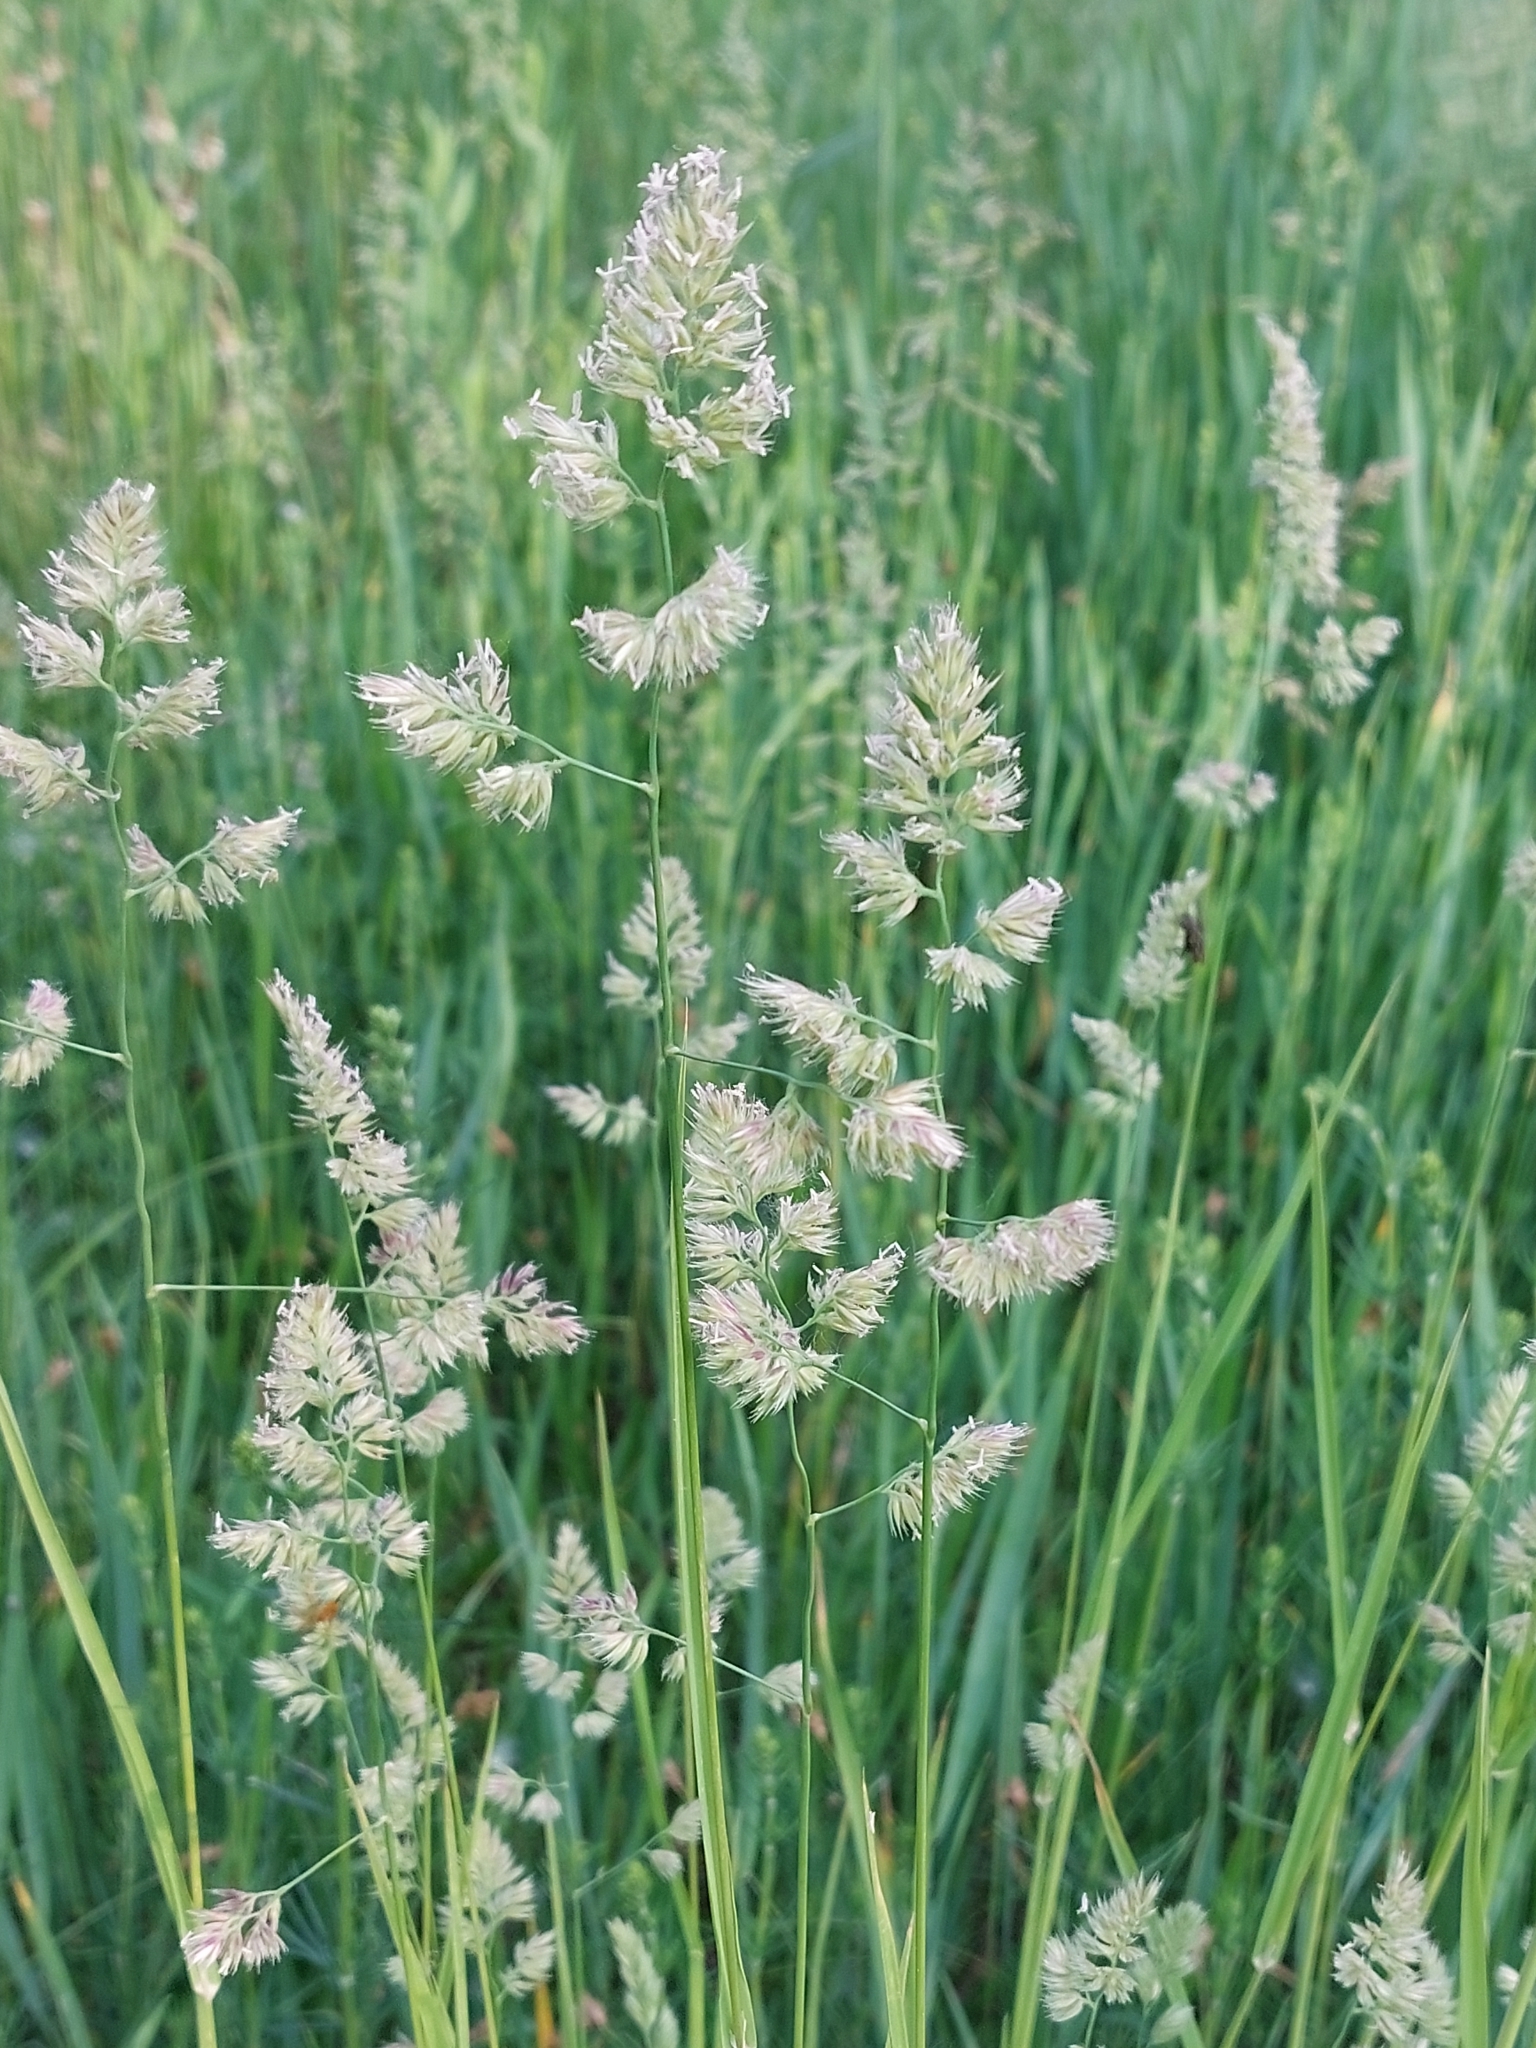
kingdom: Plantae
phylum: Tracheophyta
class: Liliopsida
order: Poales
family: Poaceae
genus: Dactylis
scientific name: Dactylis glomerata
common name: Orchardgrass
